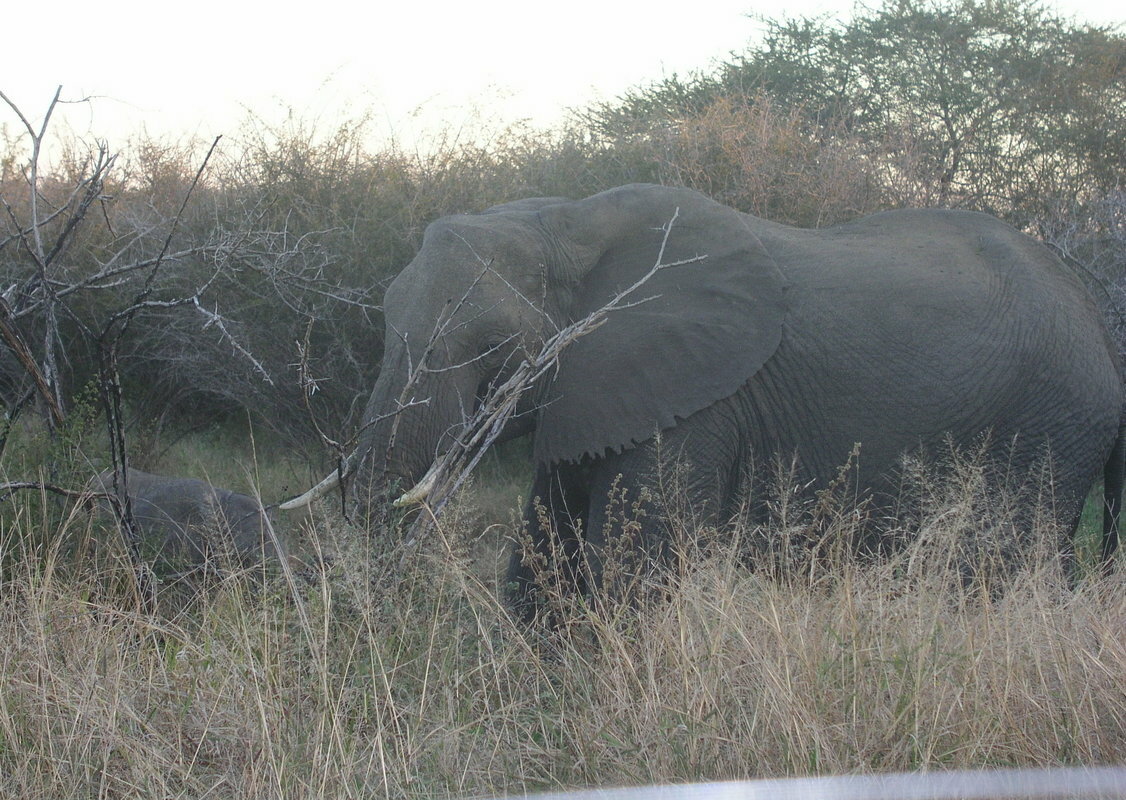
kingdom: Animalia
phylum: Chordata
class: Mammalia
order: Proboscidea
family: Elephantidae
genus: Loxodonta
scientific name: Loxodonta africana
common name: African elephant
